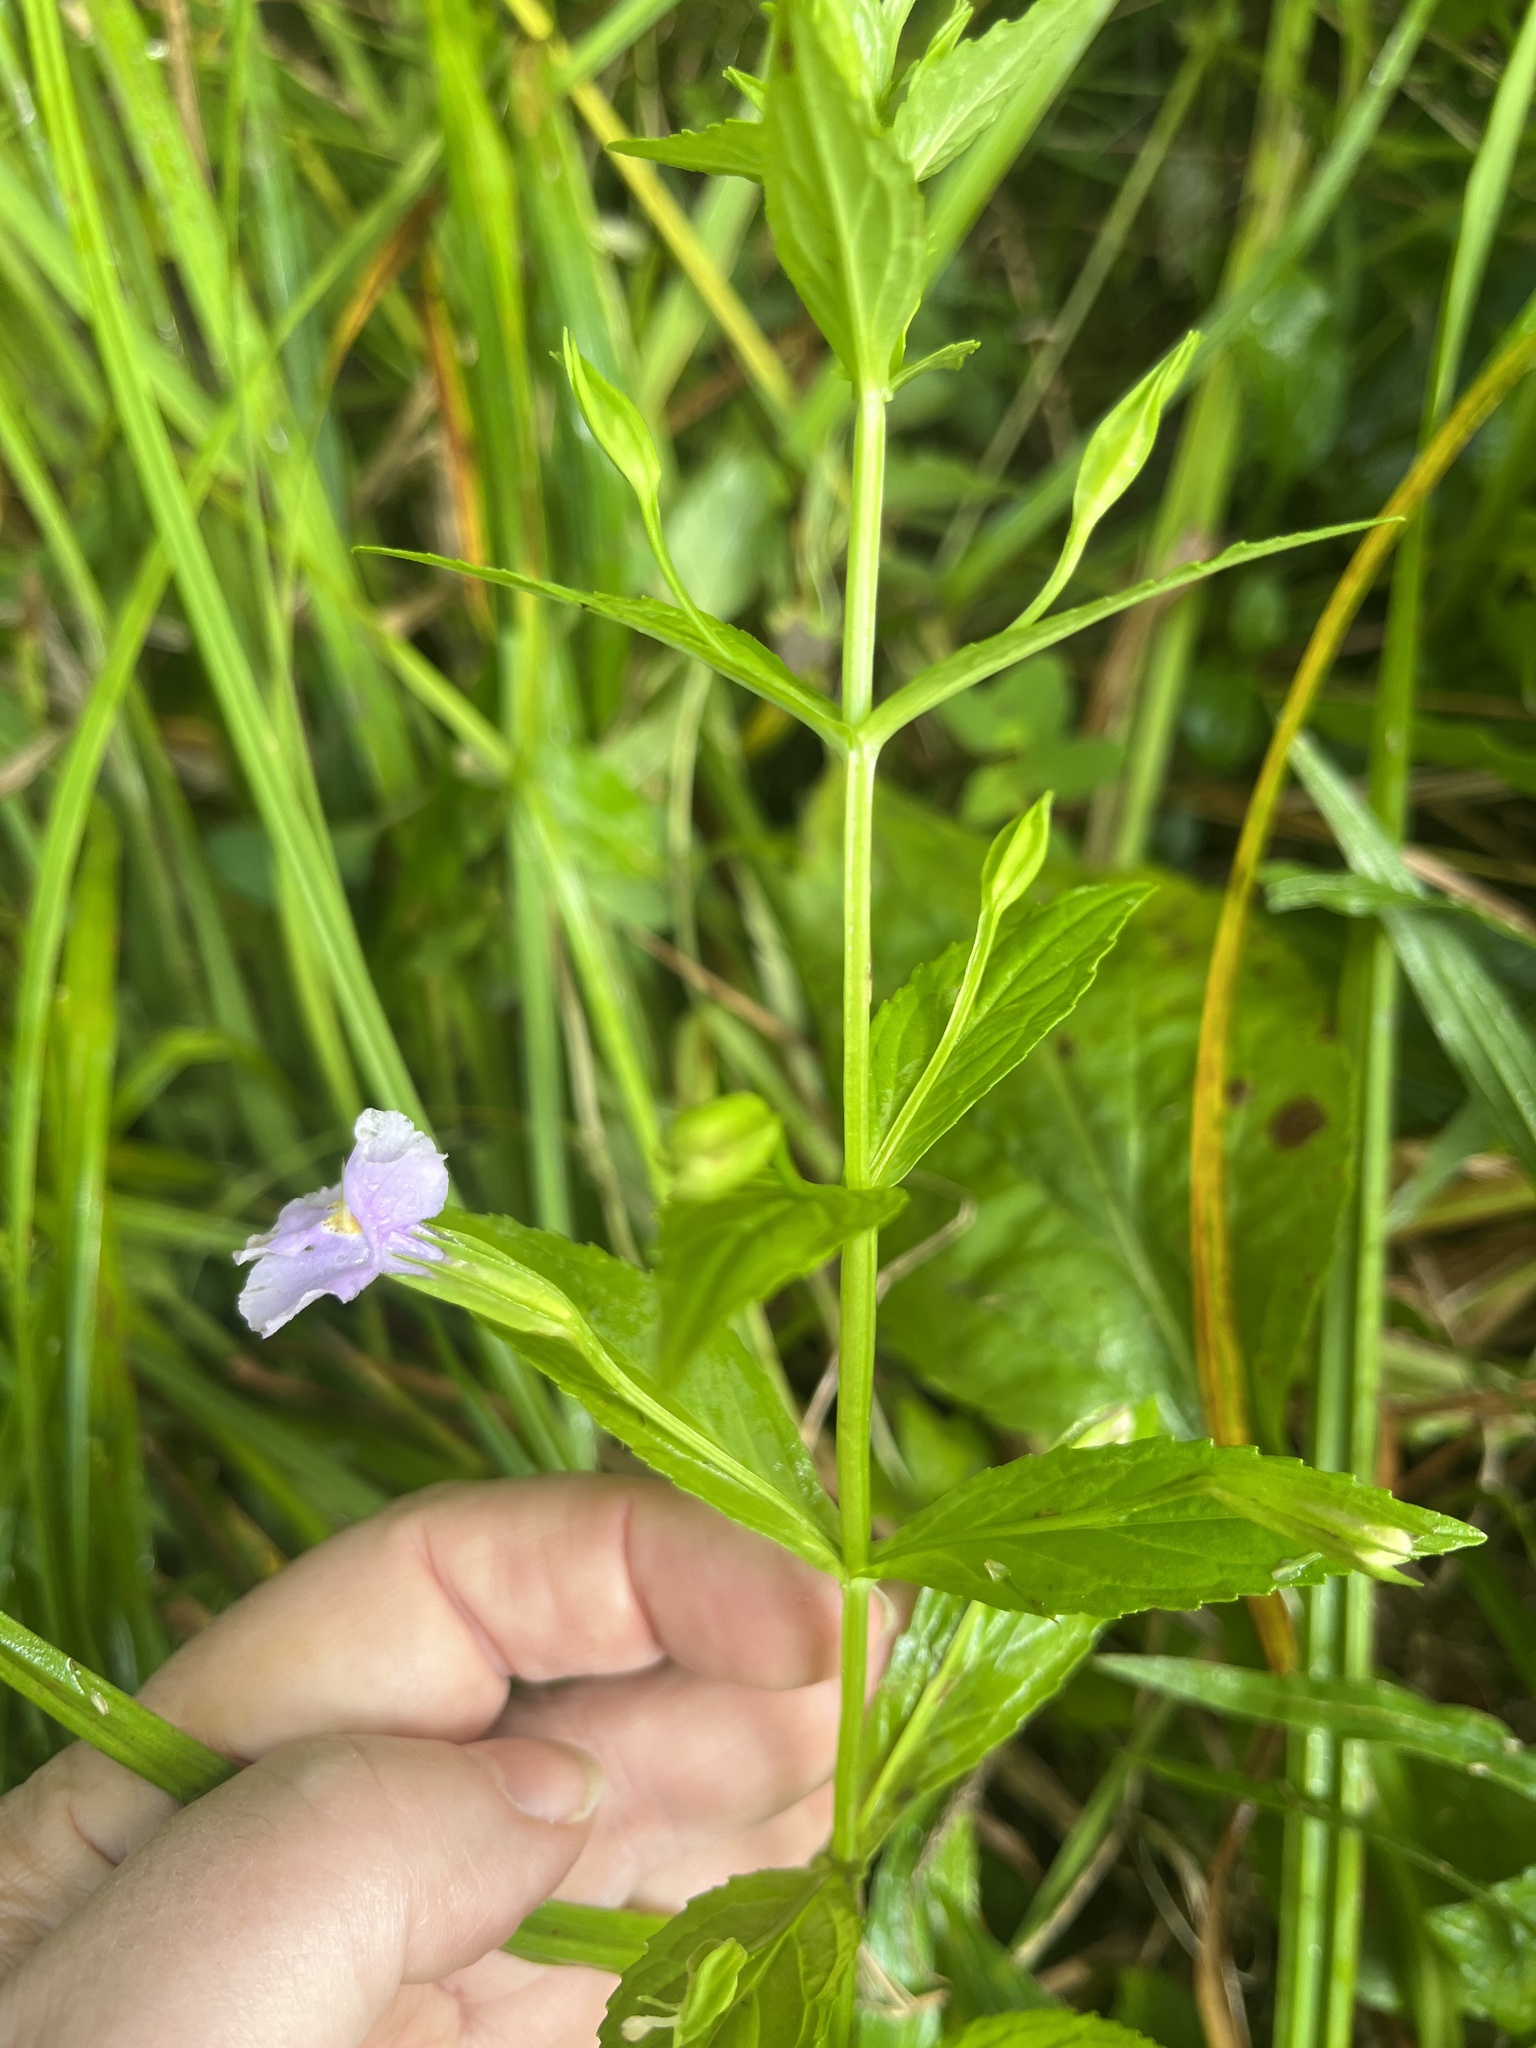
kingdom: Plantae
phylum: Tracheophyta
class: Magnoliopsida
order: Lamiales
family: Phrymaceae
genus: Mimulus
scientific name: Mimulus ringens
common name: Allegheny monkeyflower
